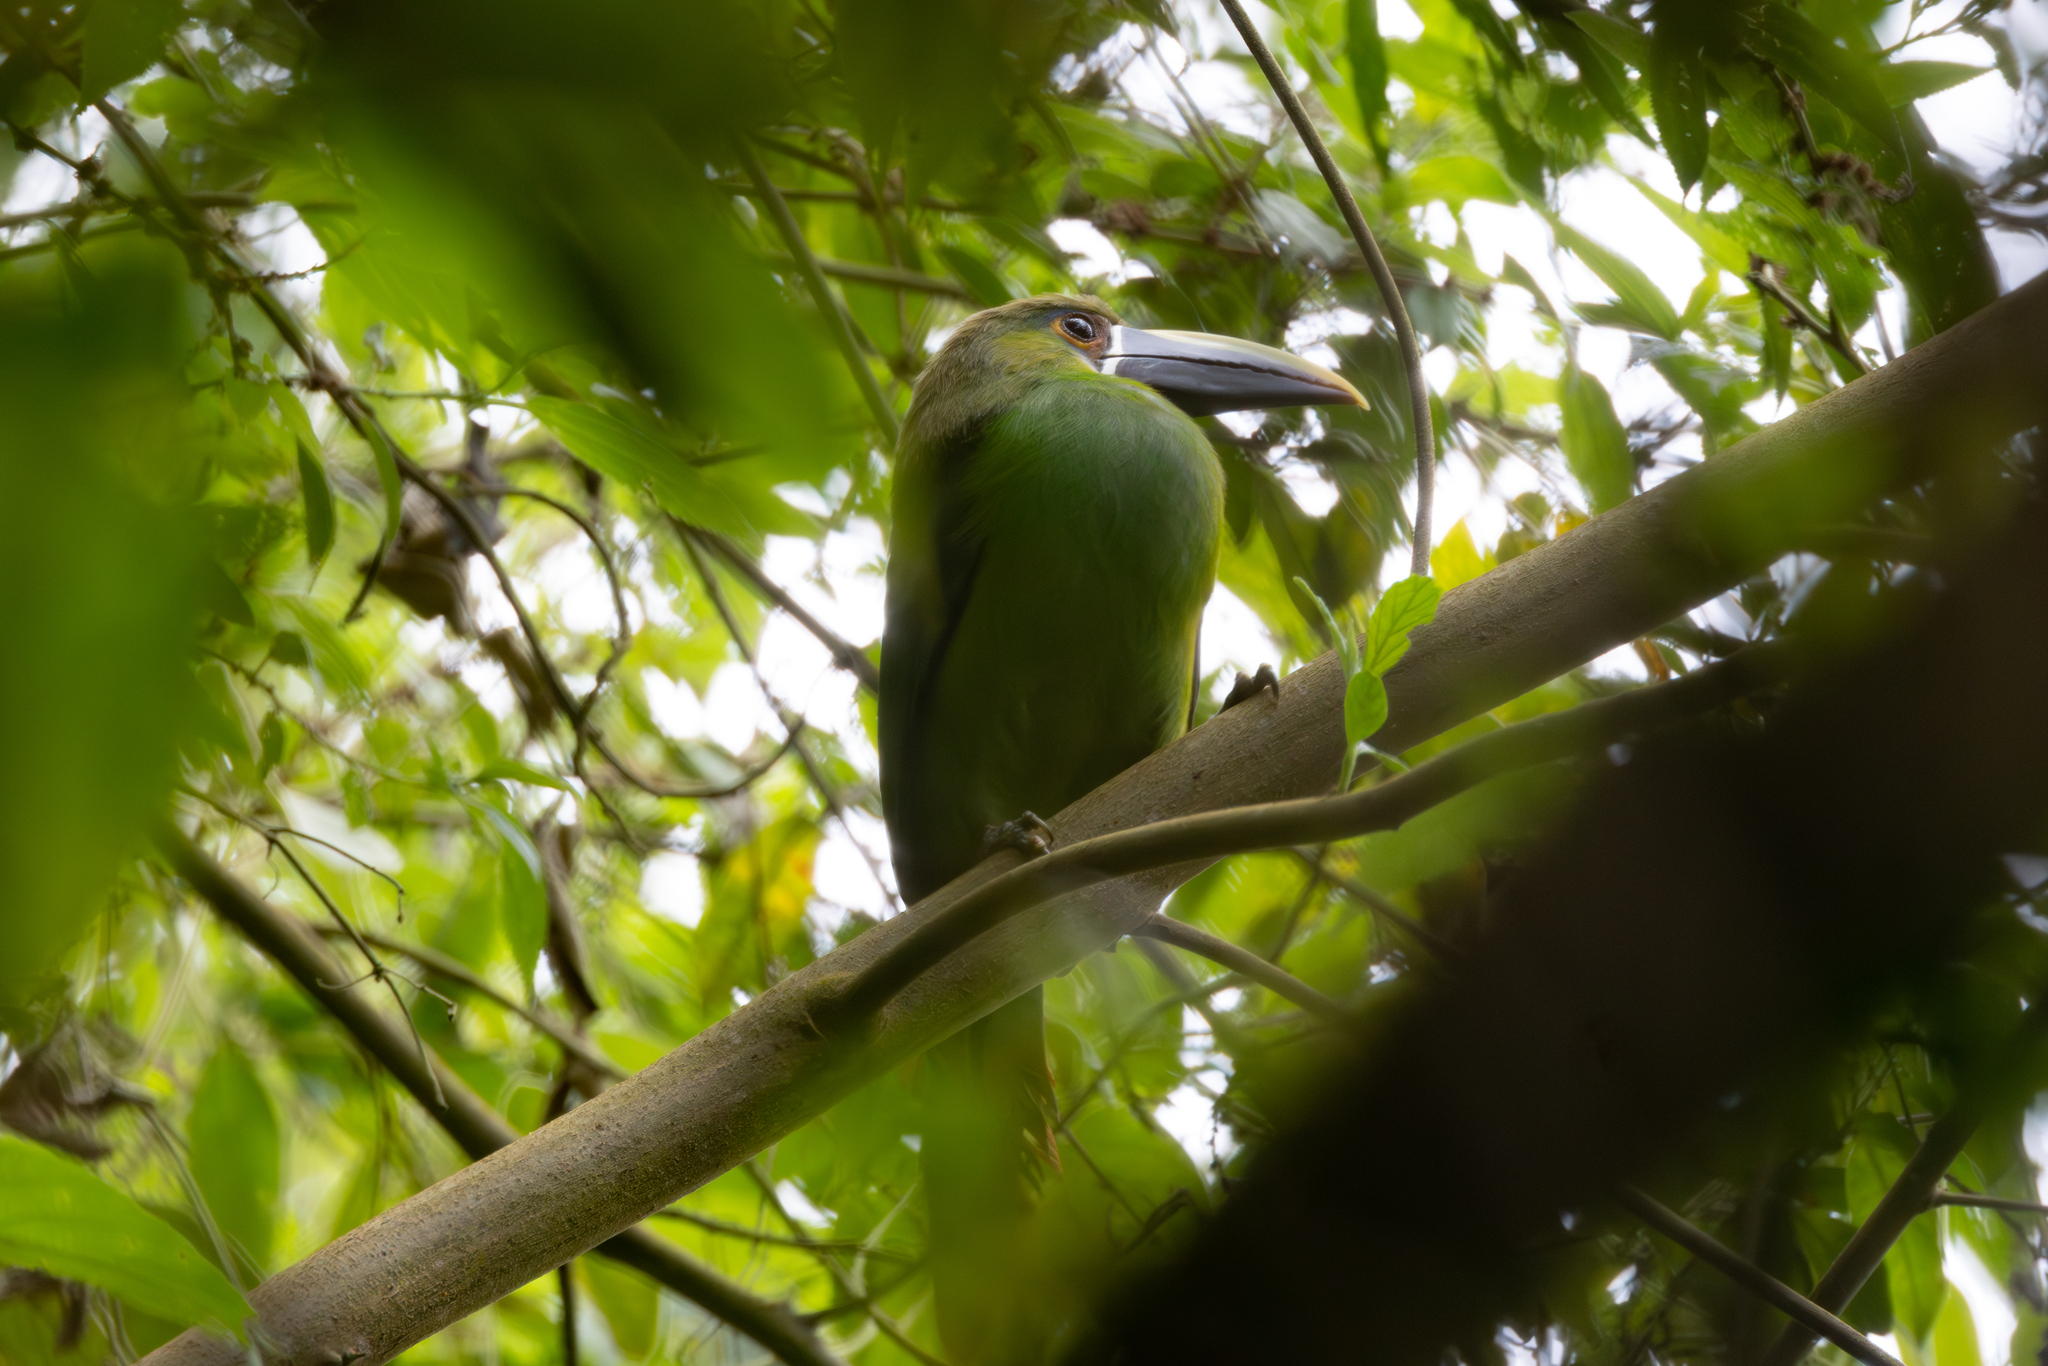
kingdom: Animalia
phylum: Chordata
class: Aves
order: Piciformes
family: Ramphastidae
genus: Aulacorhynchus
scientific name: Aulacorhynchus albivitta
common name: White-throated toucanet
